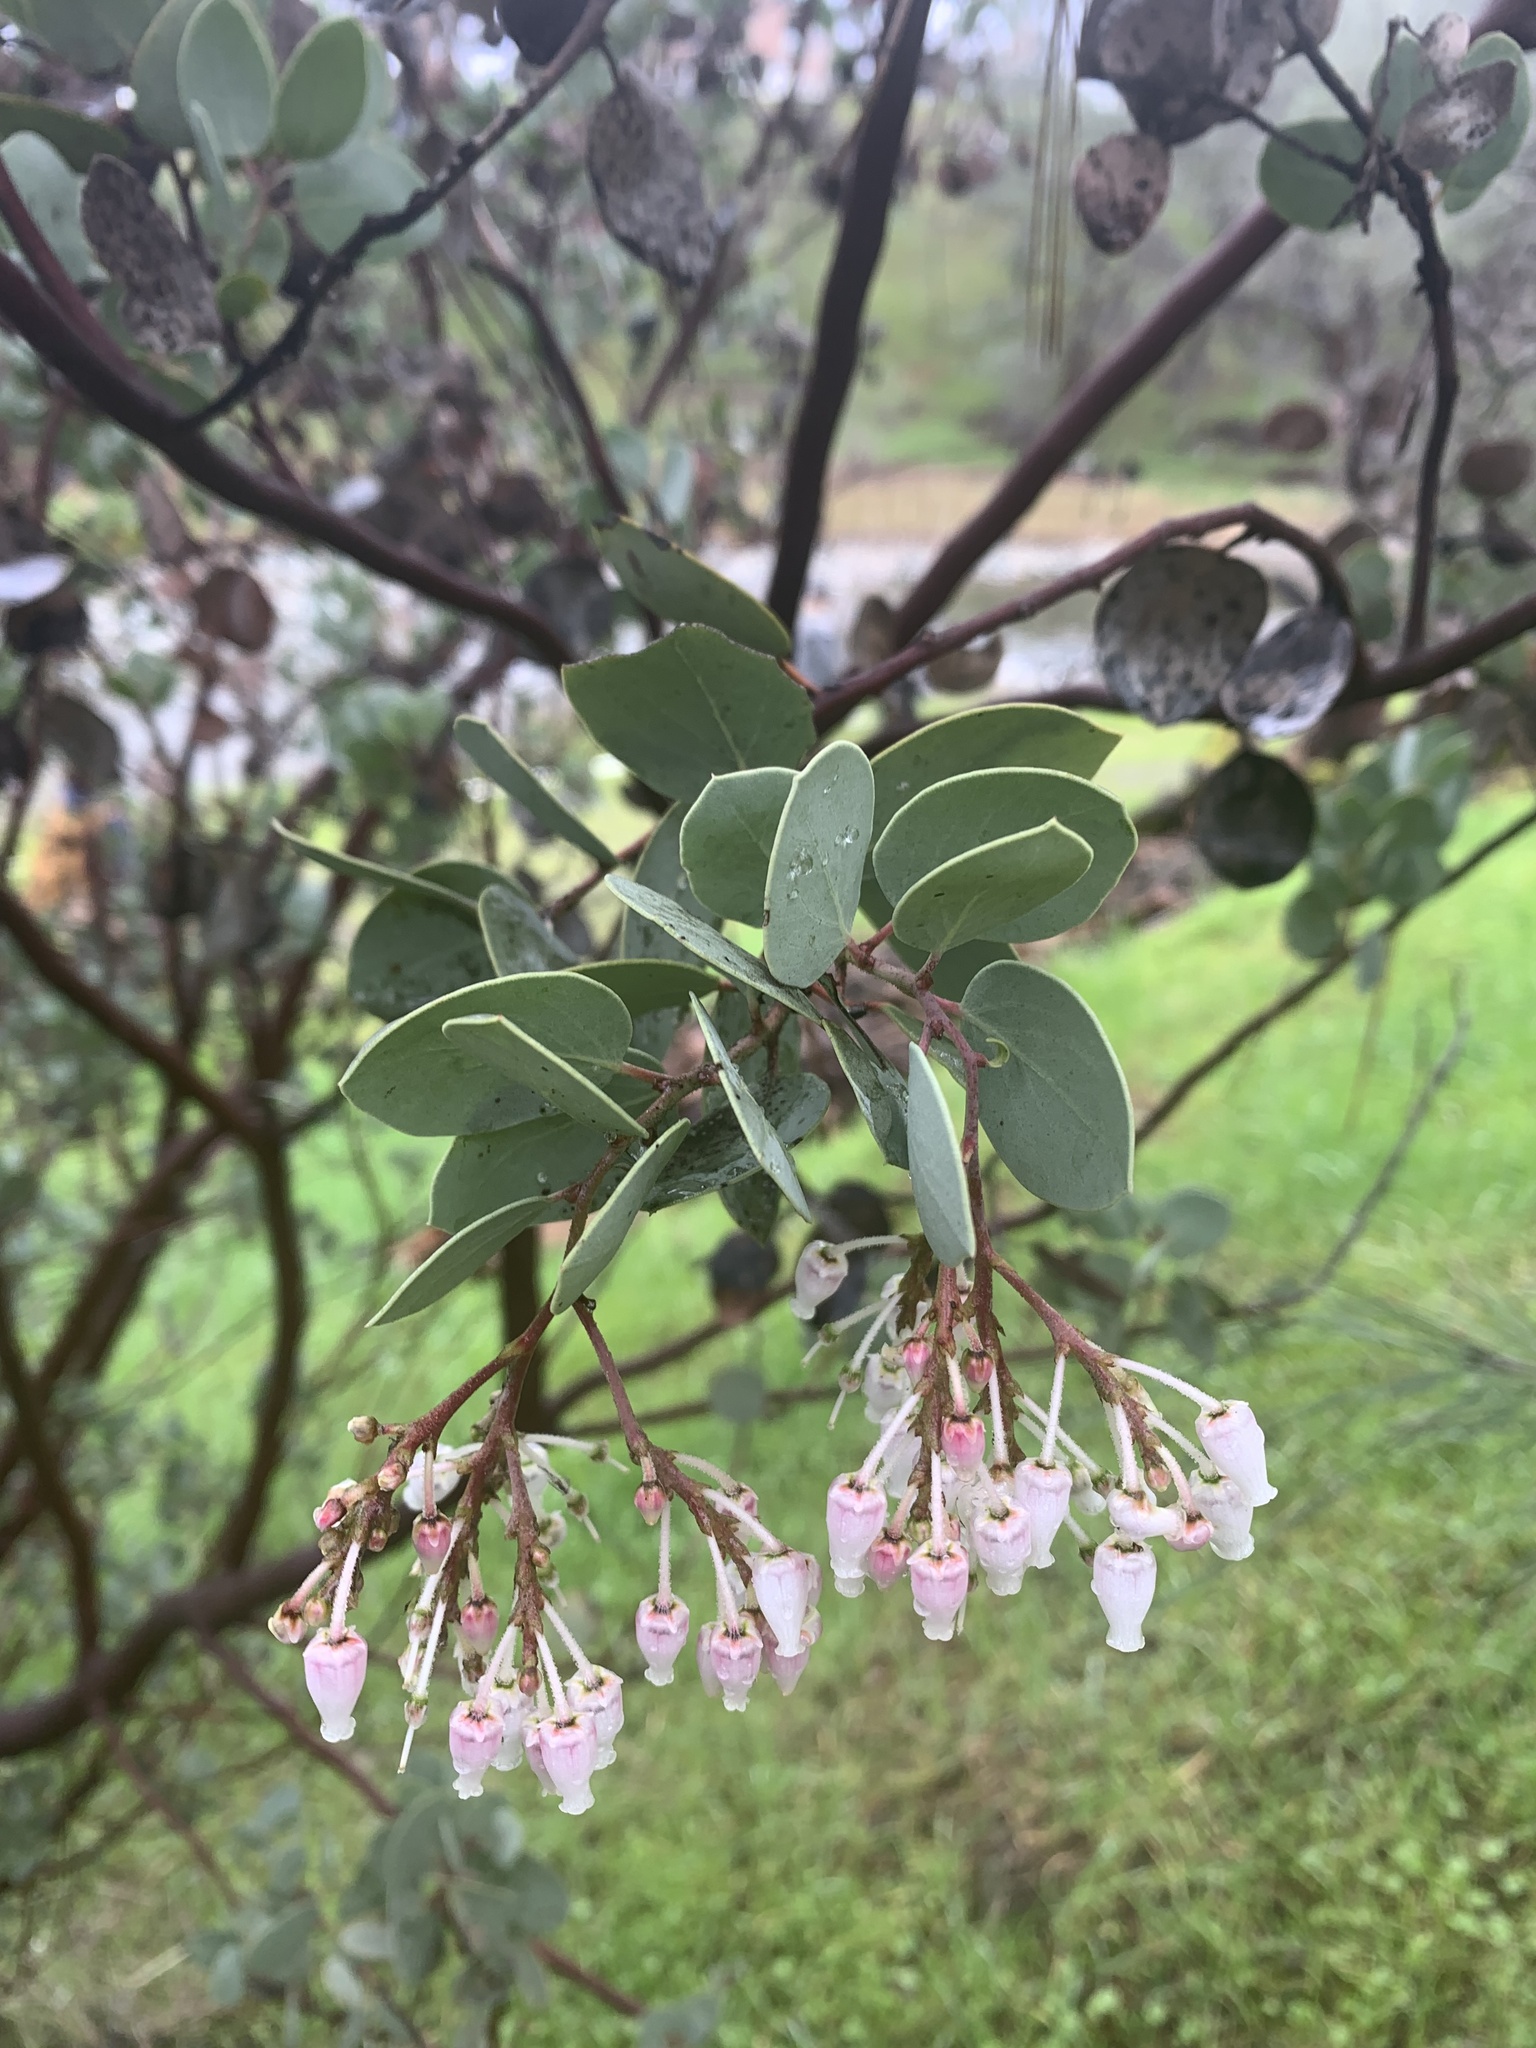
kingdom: Plantae
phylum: Tracheophyta
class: Magnoliopsida
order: Ericales
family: Ericaceae
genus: Arctostaphylos
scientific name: Arctostaphylos viscida
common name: White-leaf manzanita
